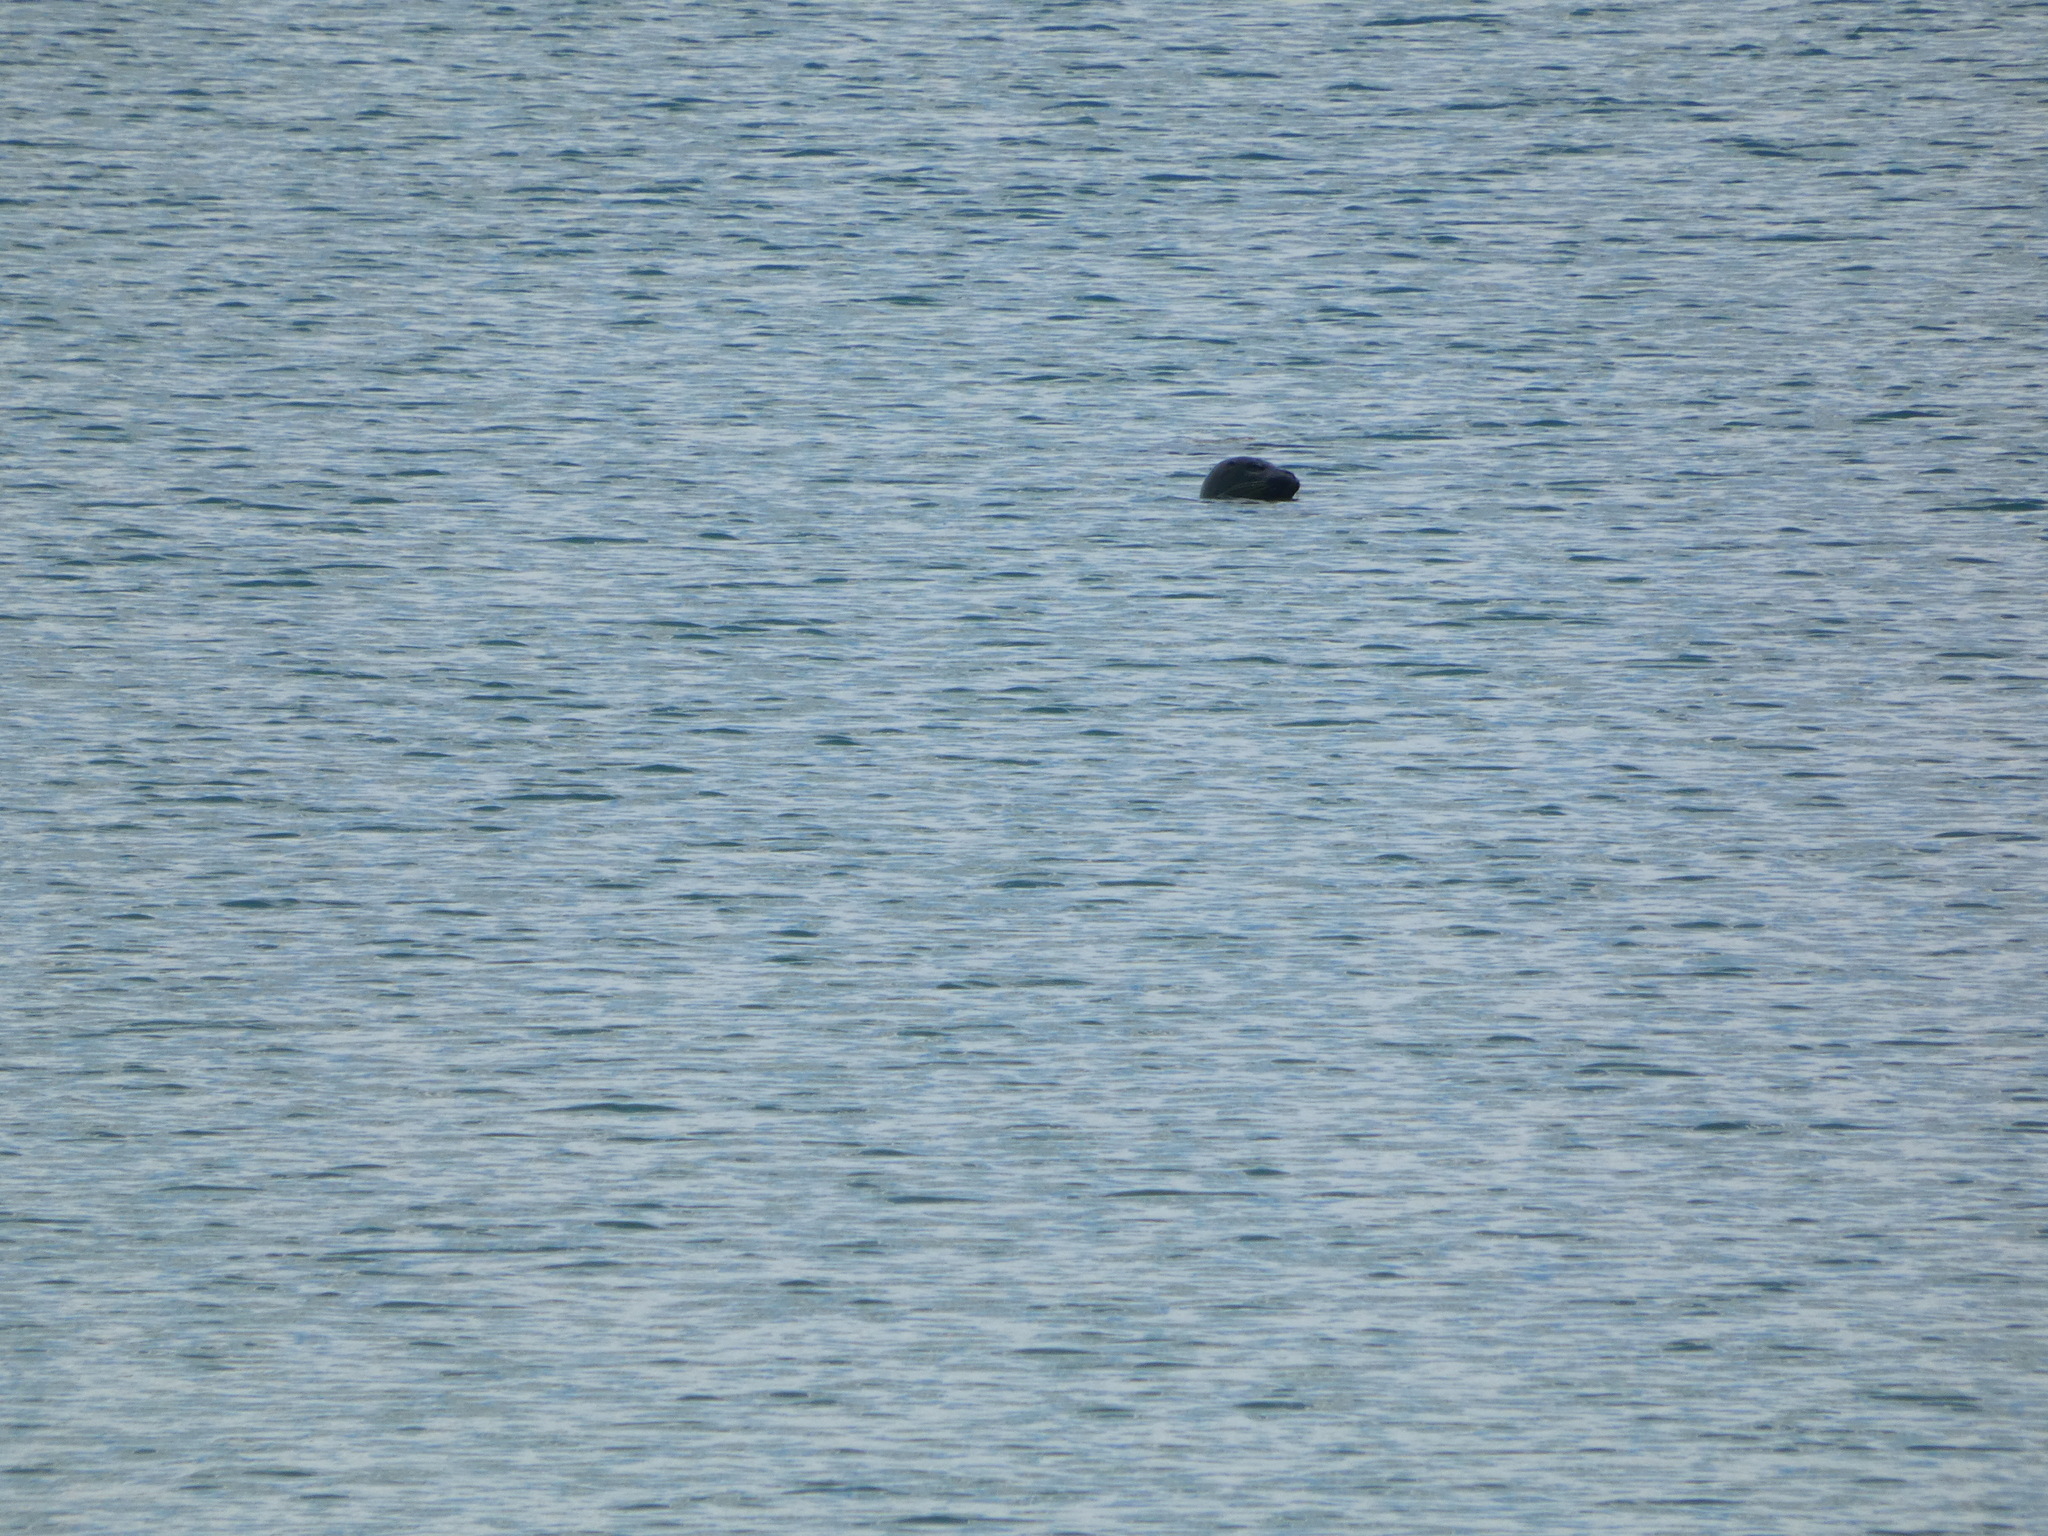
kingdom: Animalia
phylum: Chordata
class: Mammalia
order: Carnivora
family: Phocidae
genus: Phoca
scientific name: Phoca vitulina
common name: Harbor seal
